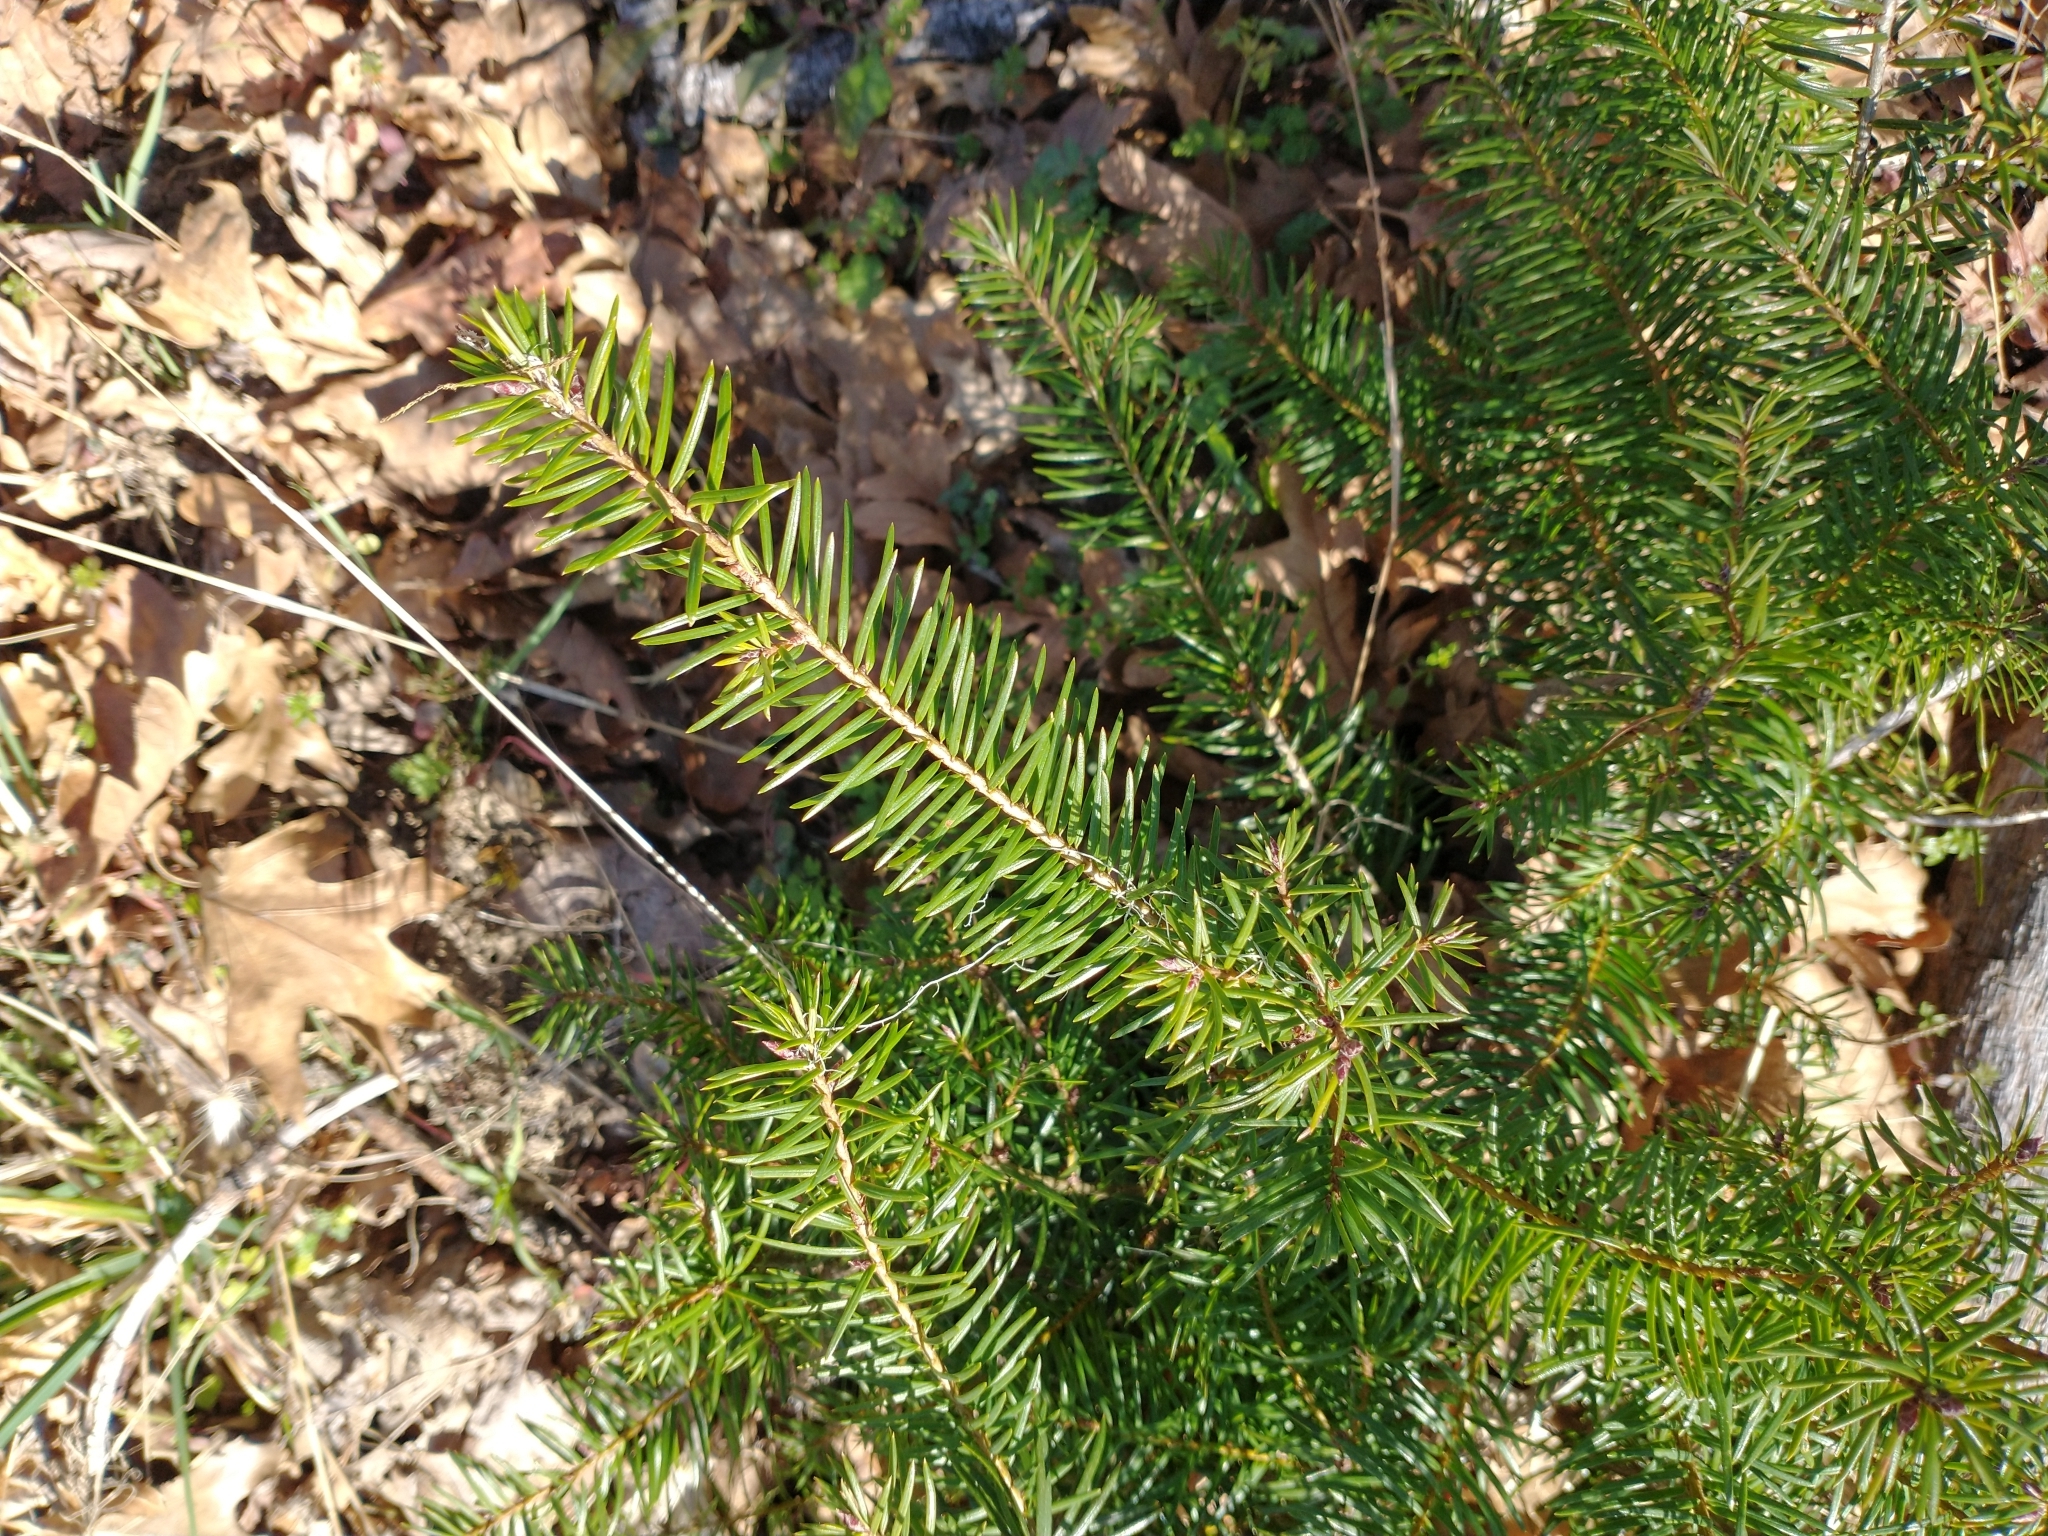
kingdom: Plantae
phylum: Tracheophyta
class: Pinopsida
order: Pinales
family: Pinaceae
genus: Pseudotsuga
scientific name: Pseudotsuga menziesii
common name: Douglas fir
